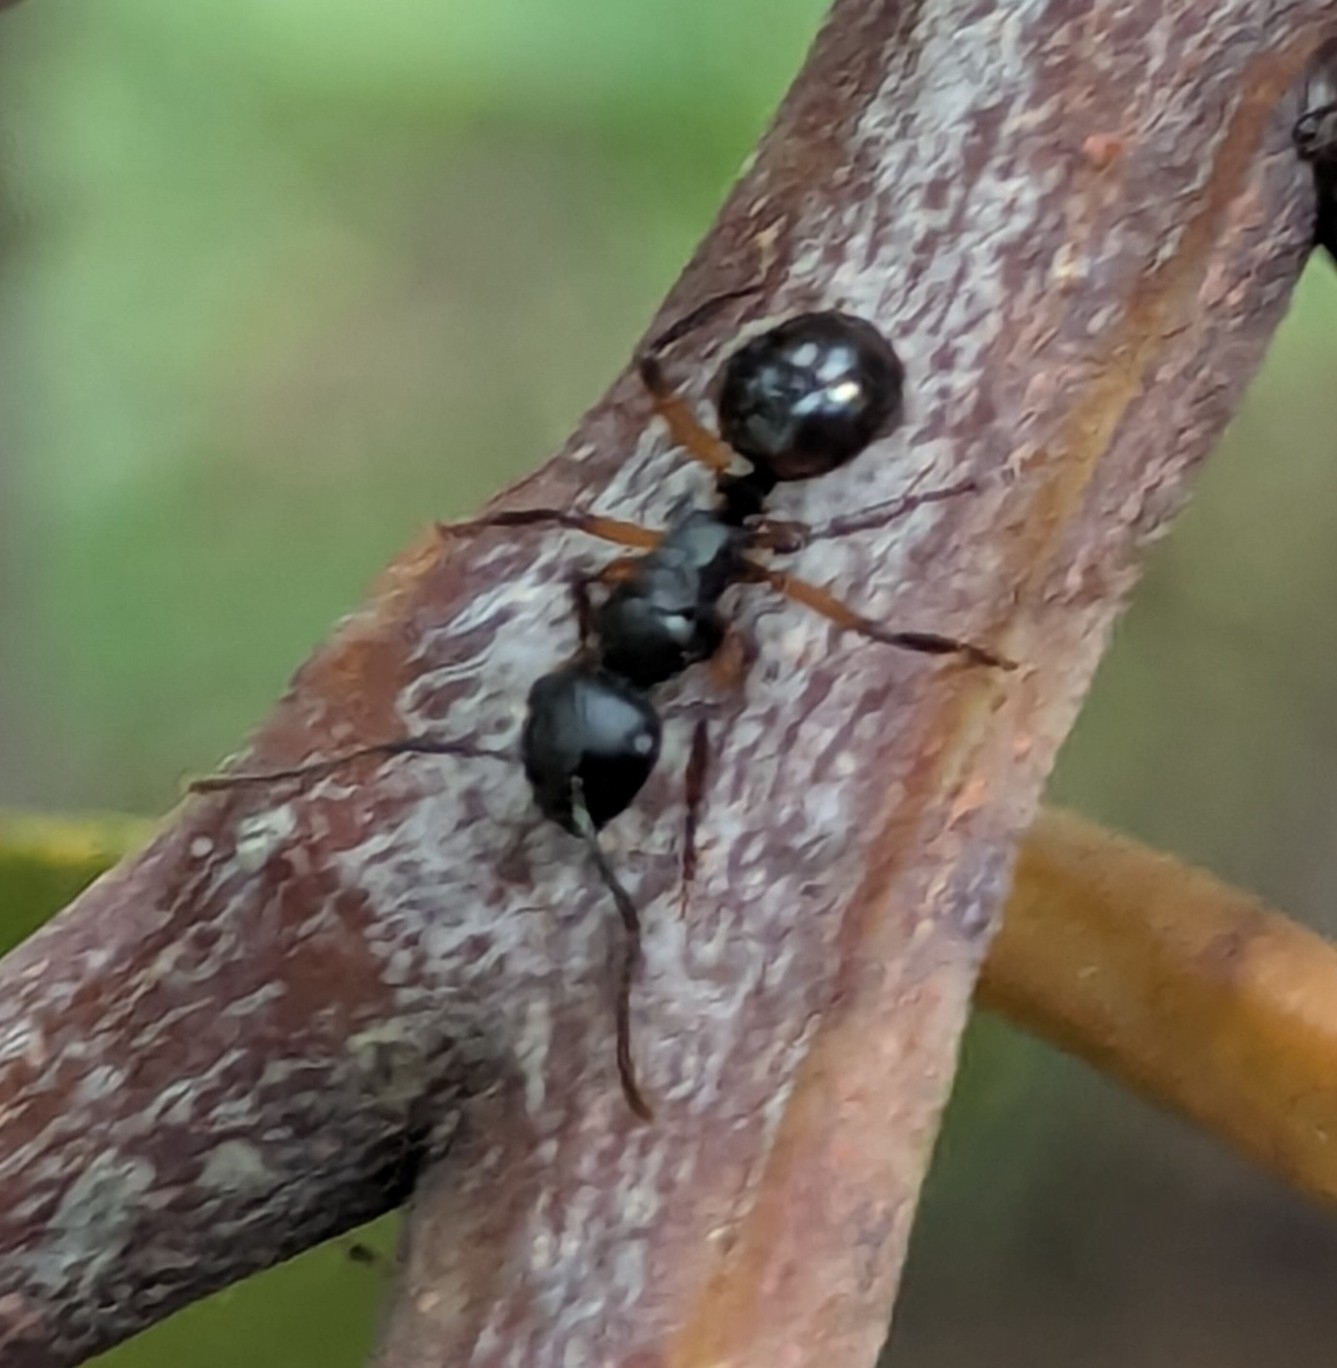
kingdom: Animalia
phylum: Arthropoda
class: Insecta
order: Hymenoptera
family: Formicidae
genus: Polyrhachis
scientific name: Polyrhachis femorata
